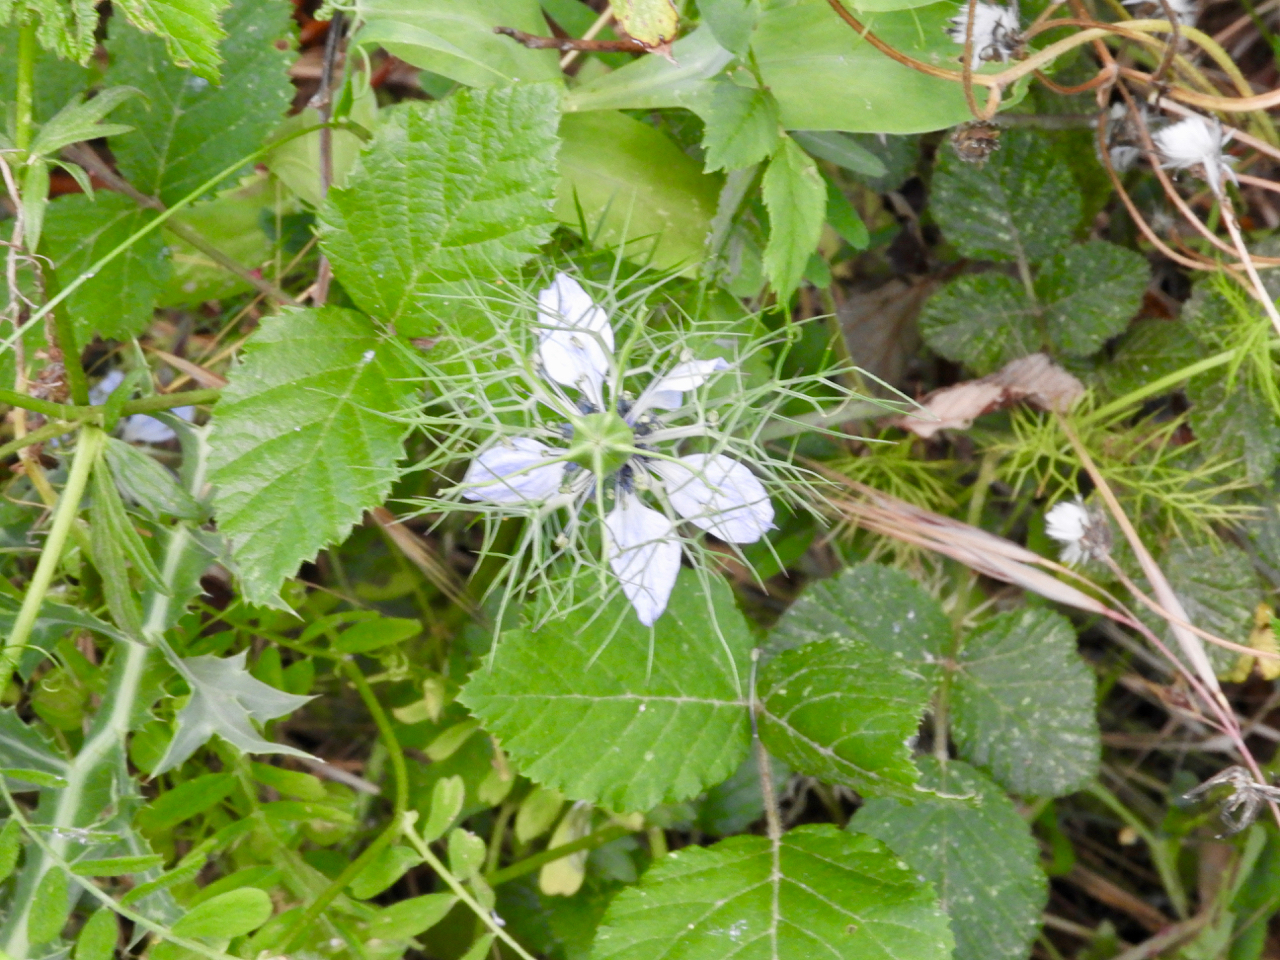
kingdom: Plantae
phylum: Tracheophyta
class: Magnoliopsida
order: Ranunculales
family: Ranunculaceae
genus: Nigella
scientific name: Nigella damascena
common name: Love-in-a-mist
